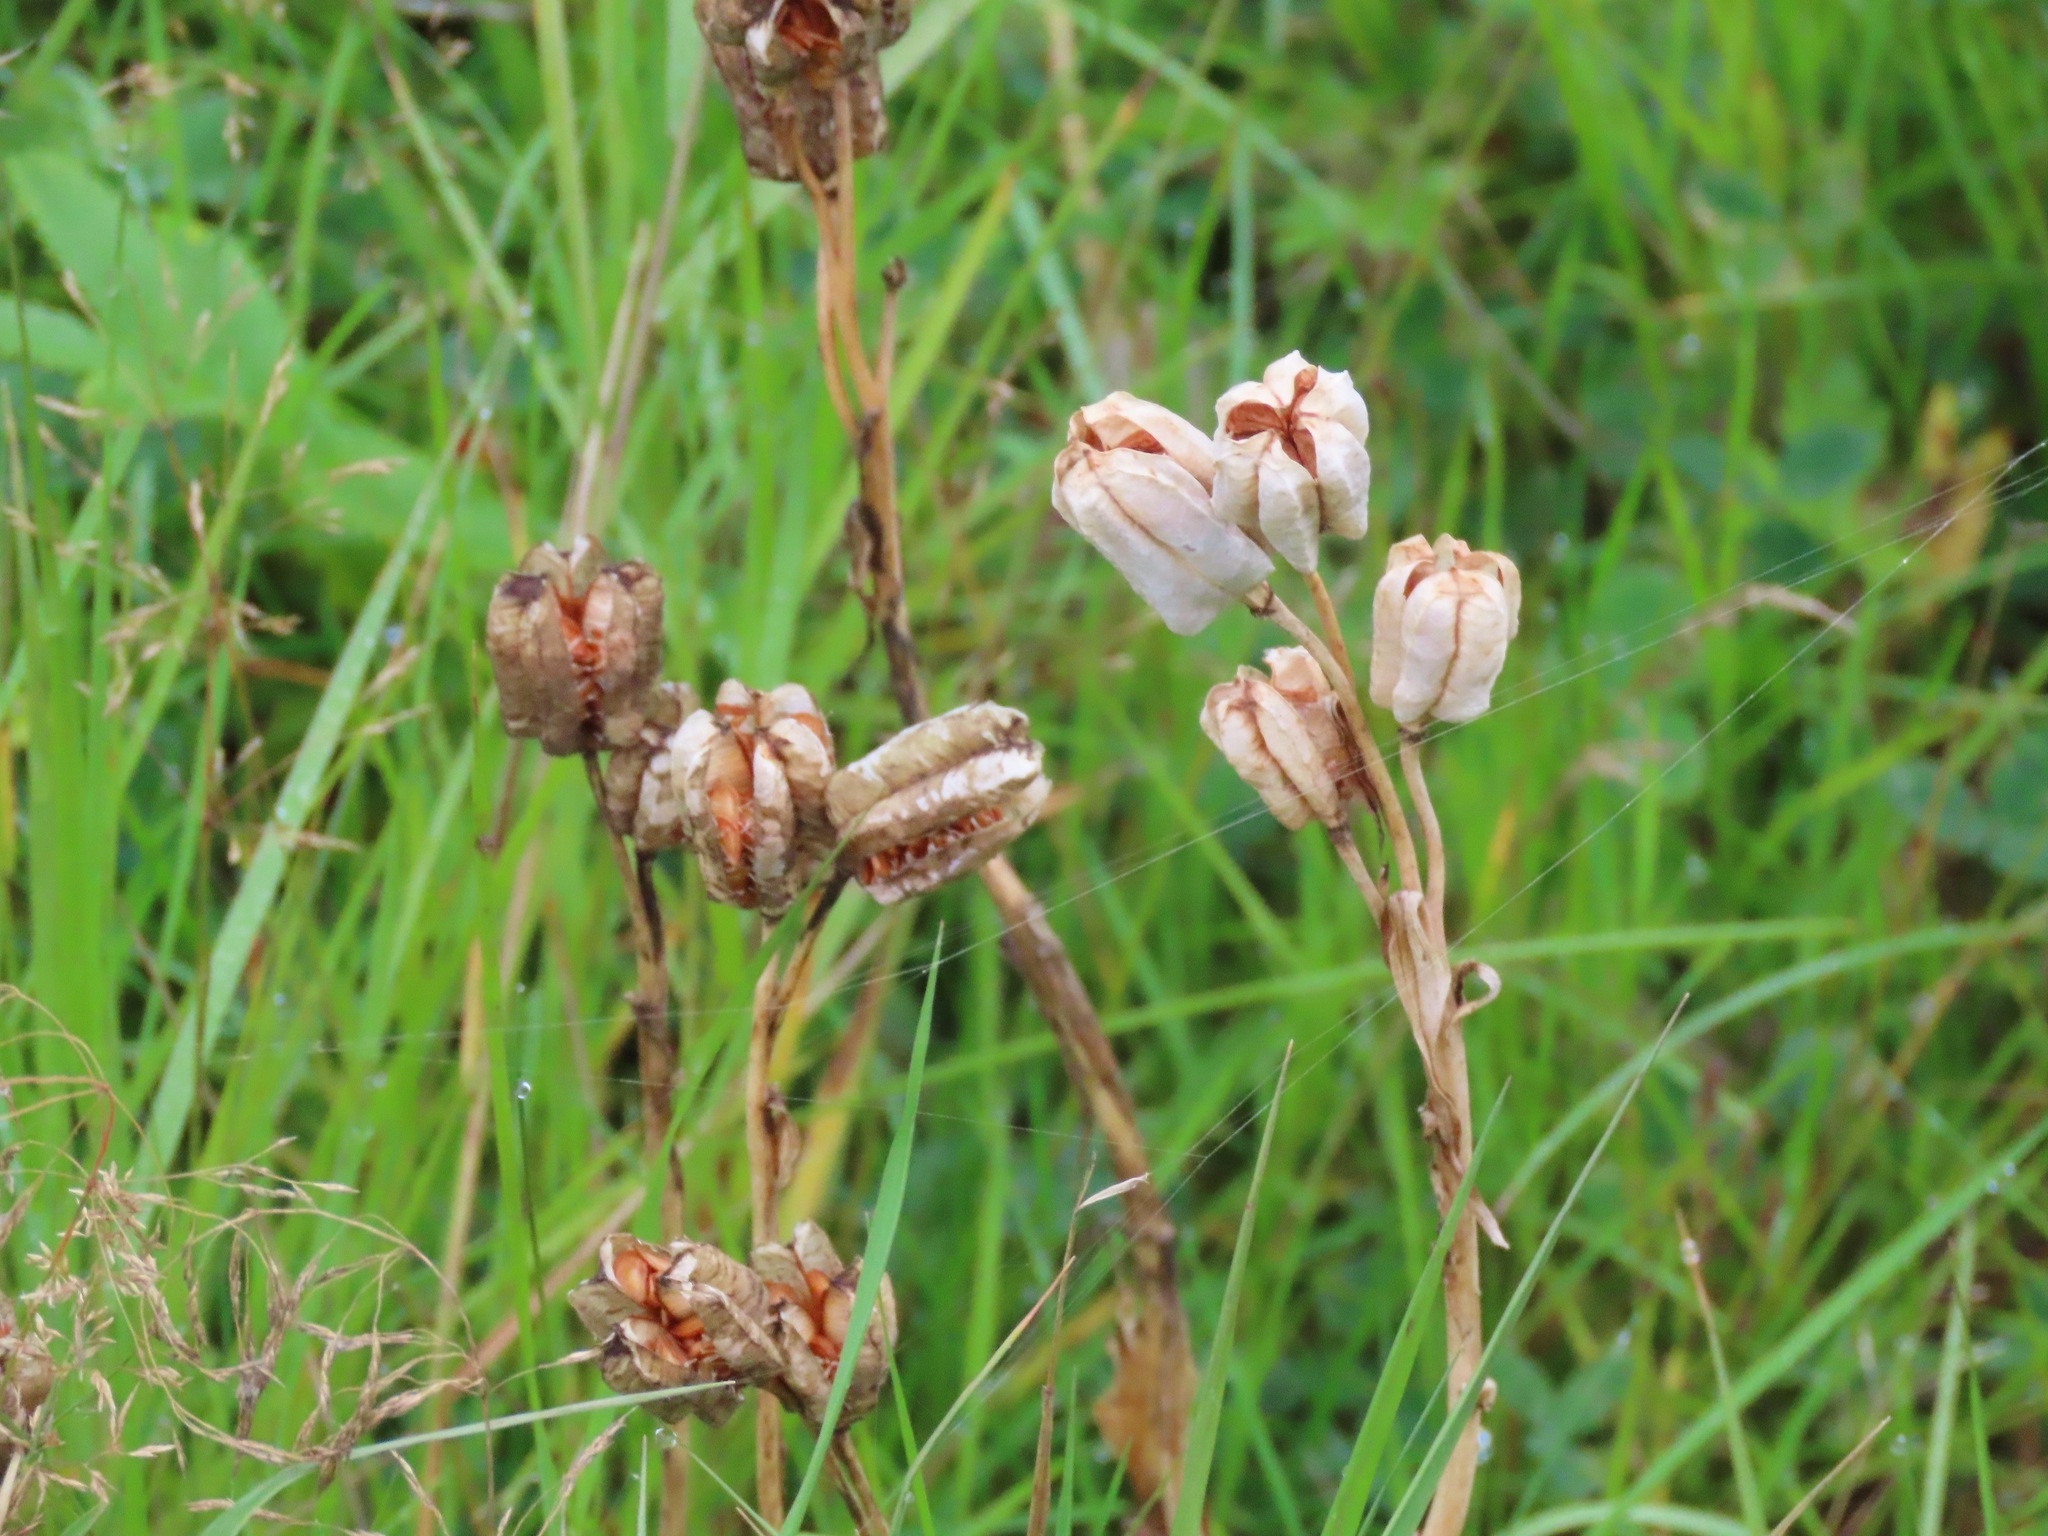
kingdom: Plantae
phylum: Tracheophyta
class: Liliopsida
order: Liliales
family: Liliaceae
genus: Fritillaria
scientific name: Fritillaria camschatcensis
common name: Kamchatka fritillary
